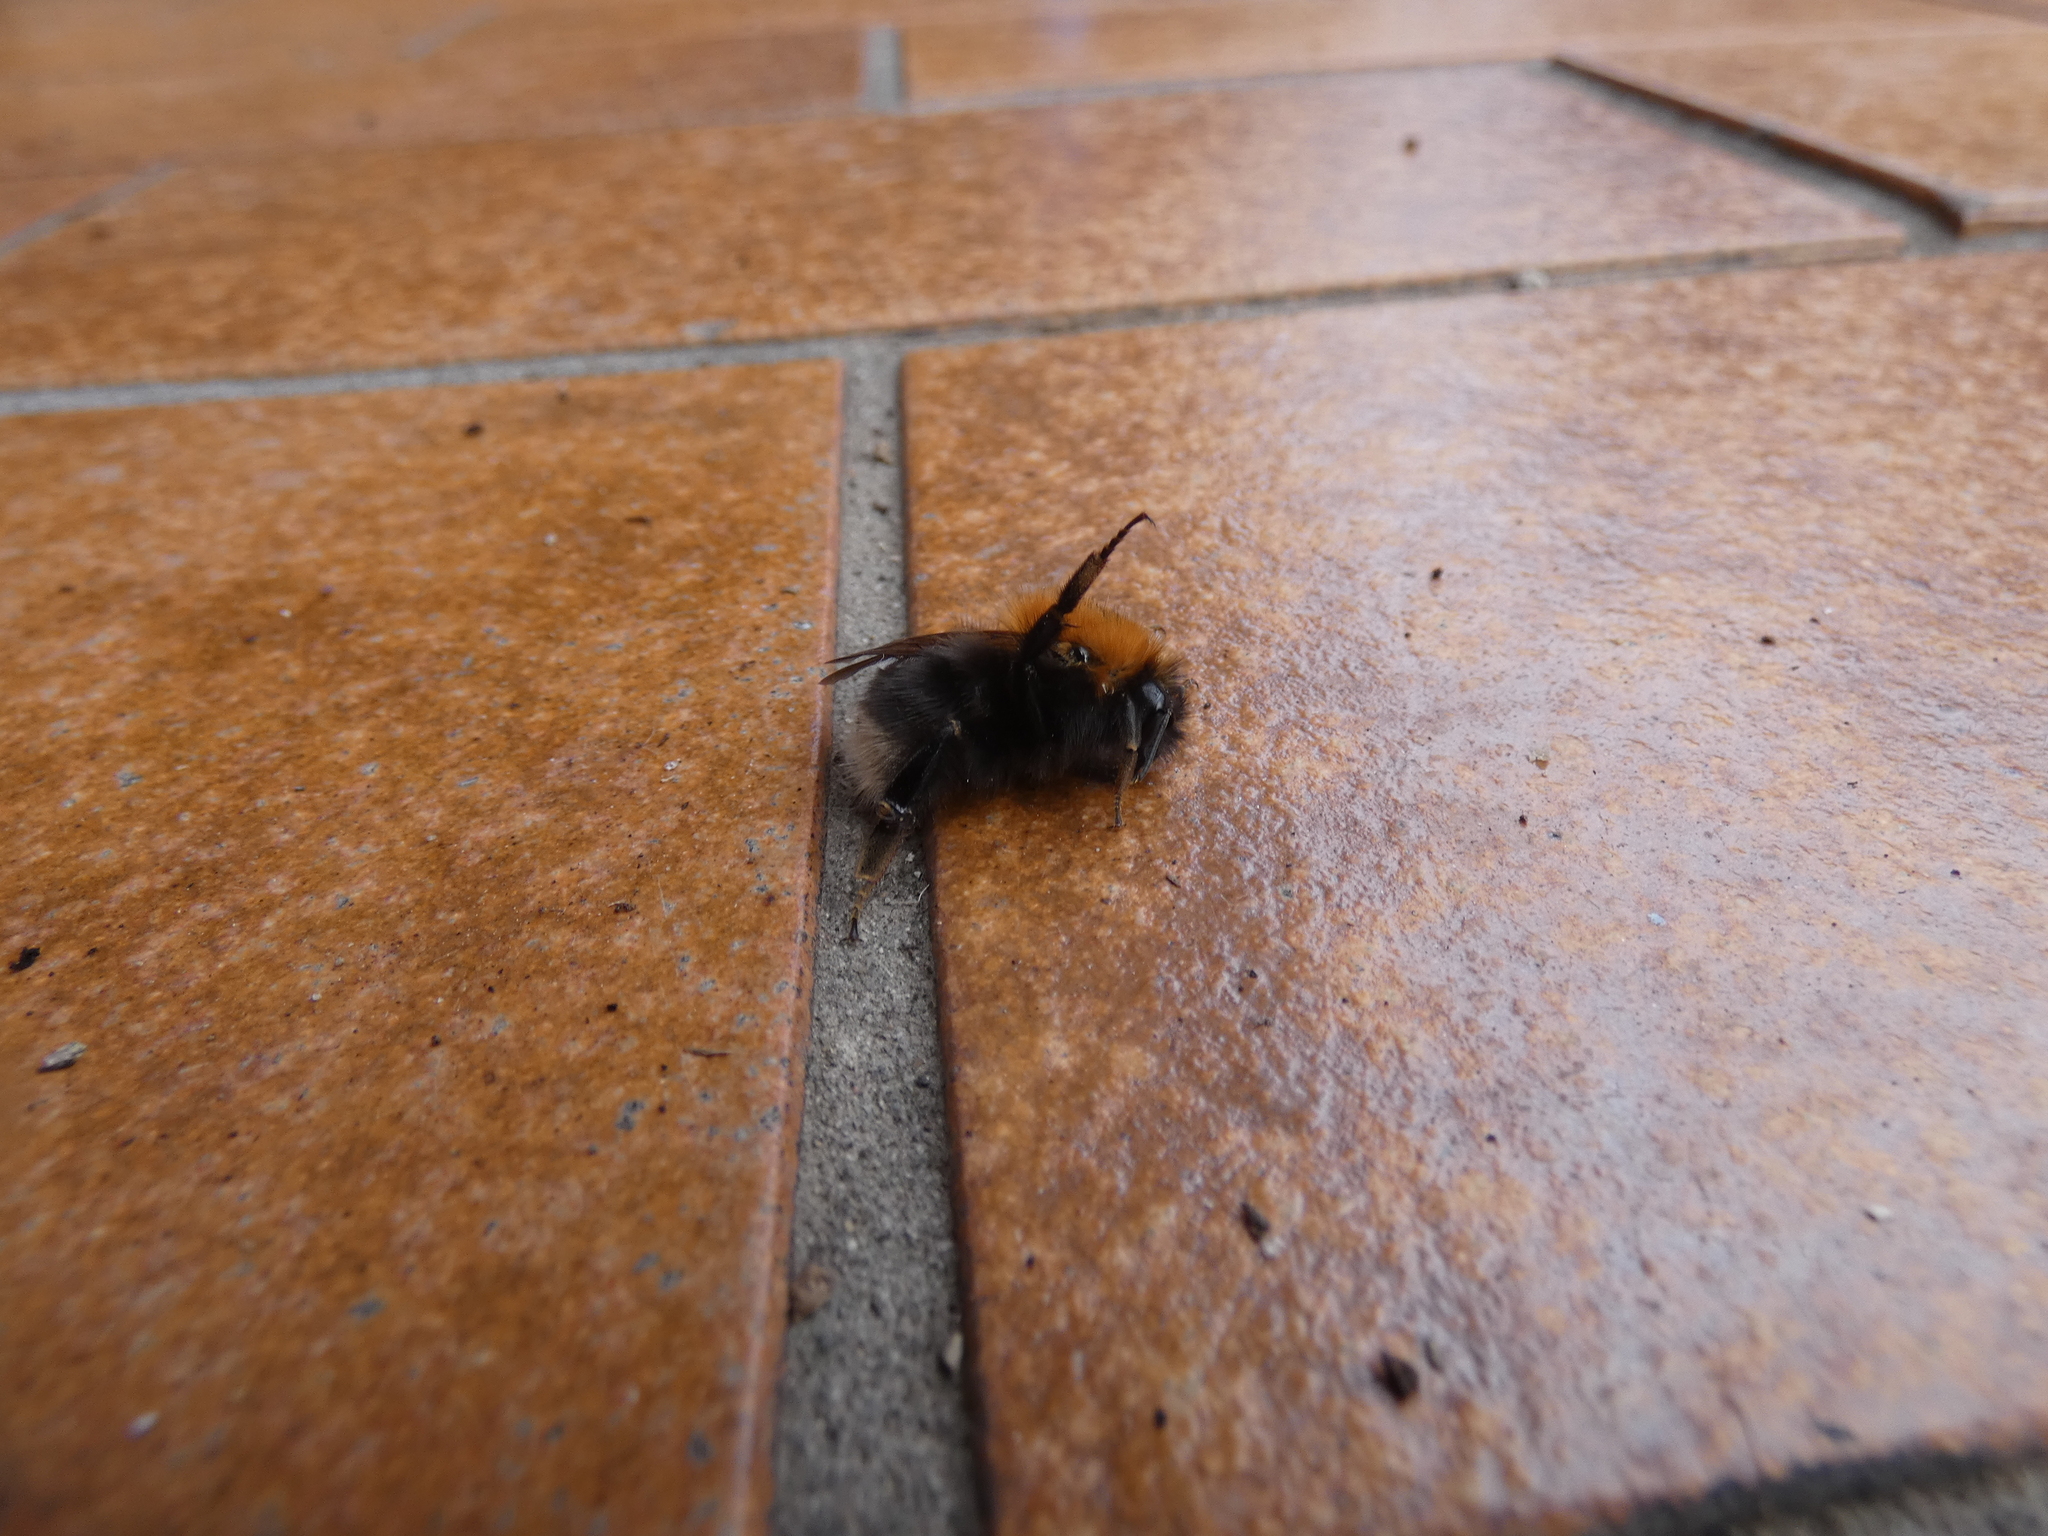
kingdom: Animalia
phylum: Arthropoda
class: Insecta
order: Hymenoptera
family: Apidae
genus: Bombus
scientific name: Bombus hypnorum
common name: New garden bumblebee
